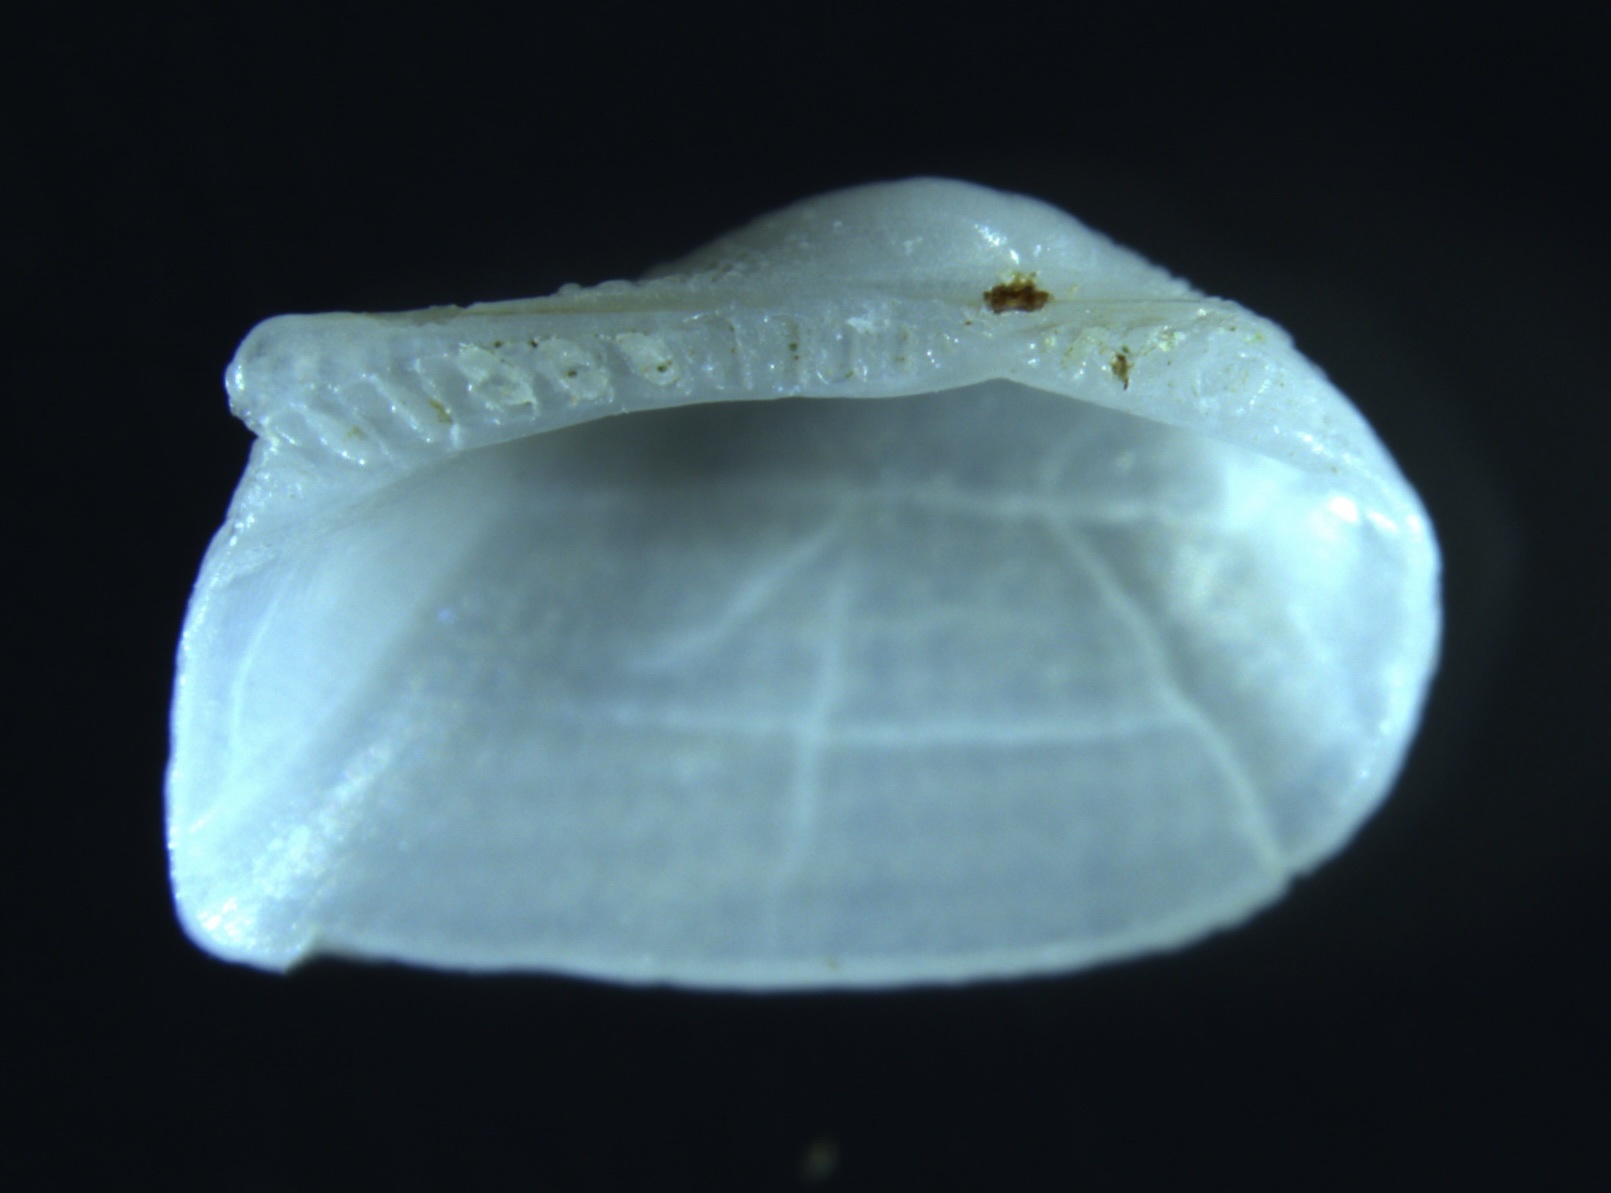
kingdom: Animalia
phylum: Mollusca
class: Bivalvia
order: Arcida
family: Noetiidae
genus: Arcopsis
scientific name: Arcopsis adamsi
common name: Cancellate miniature ark
